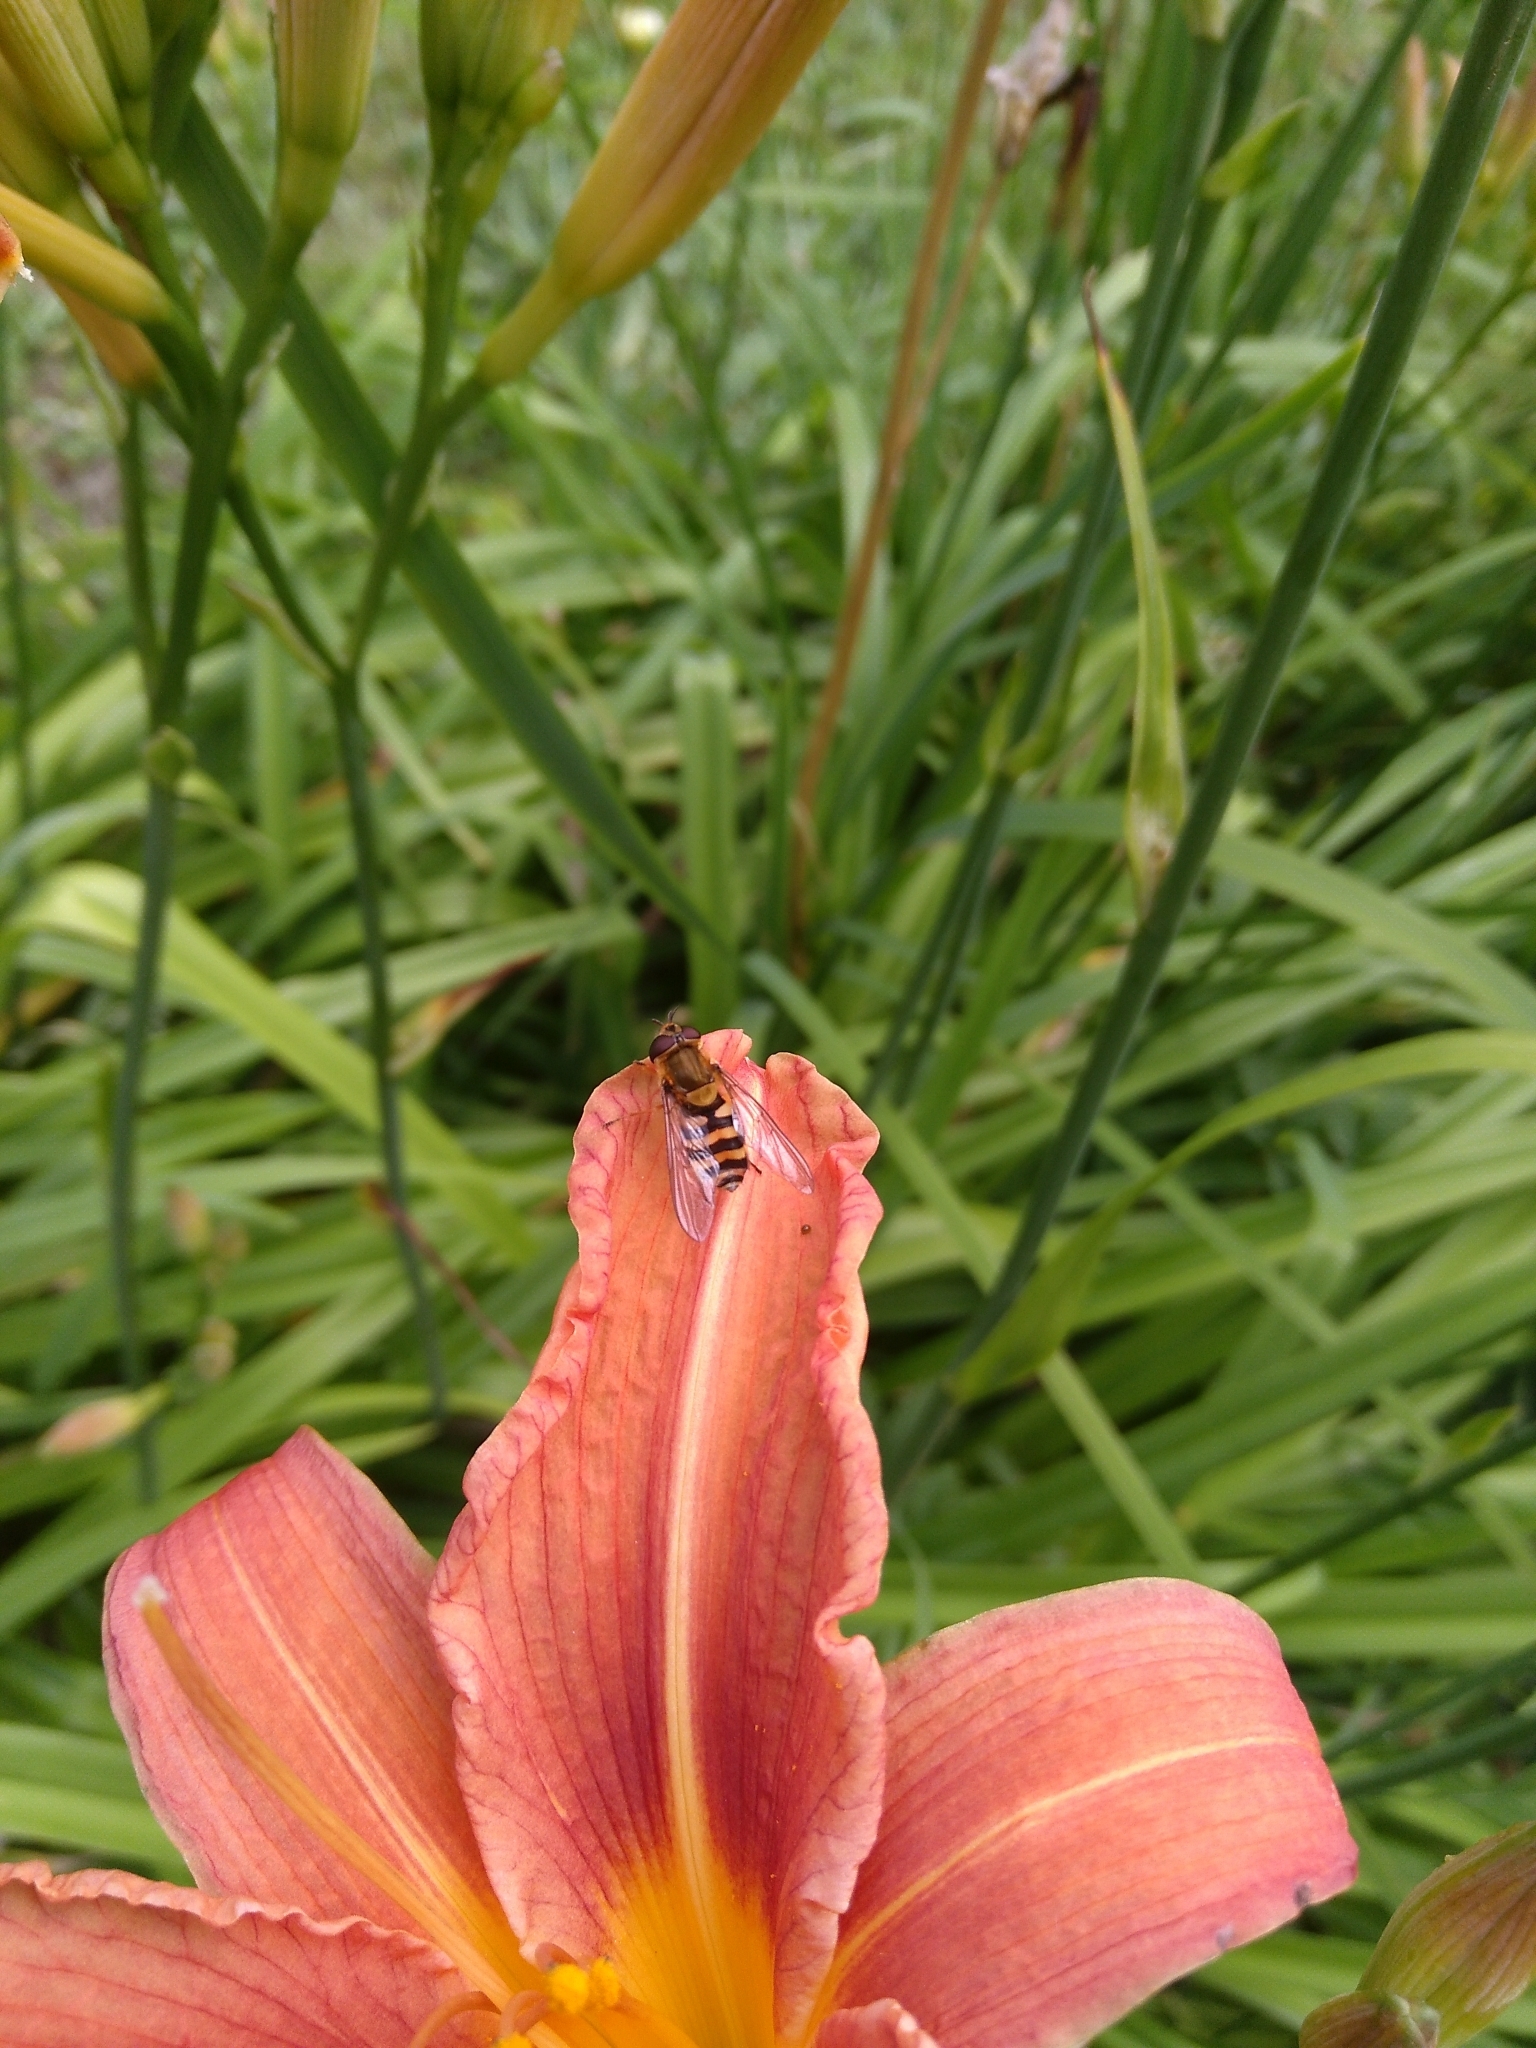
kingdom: Animalia
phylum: Arthropoda
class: Insecta
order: Diptera
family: Syrphidae
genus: Syrphus
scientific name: Syrphus
